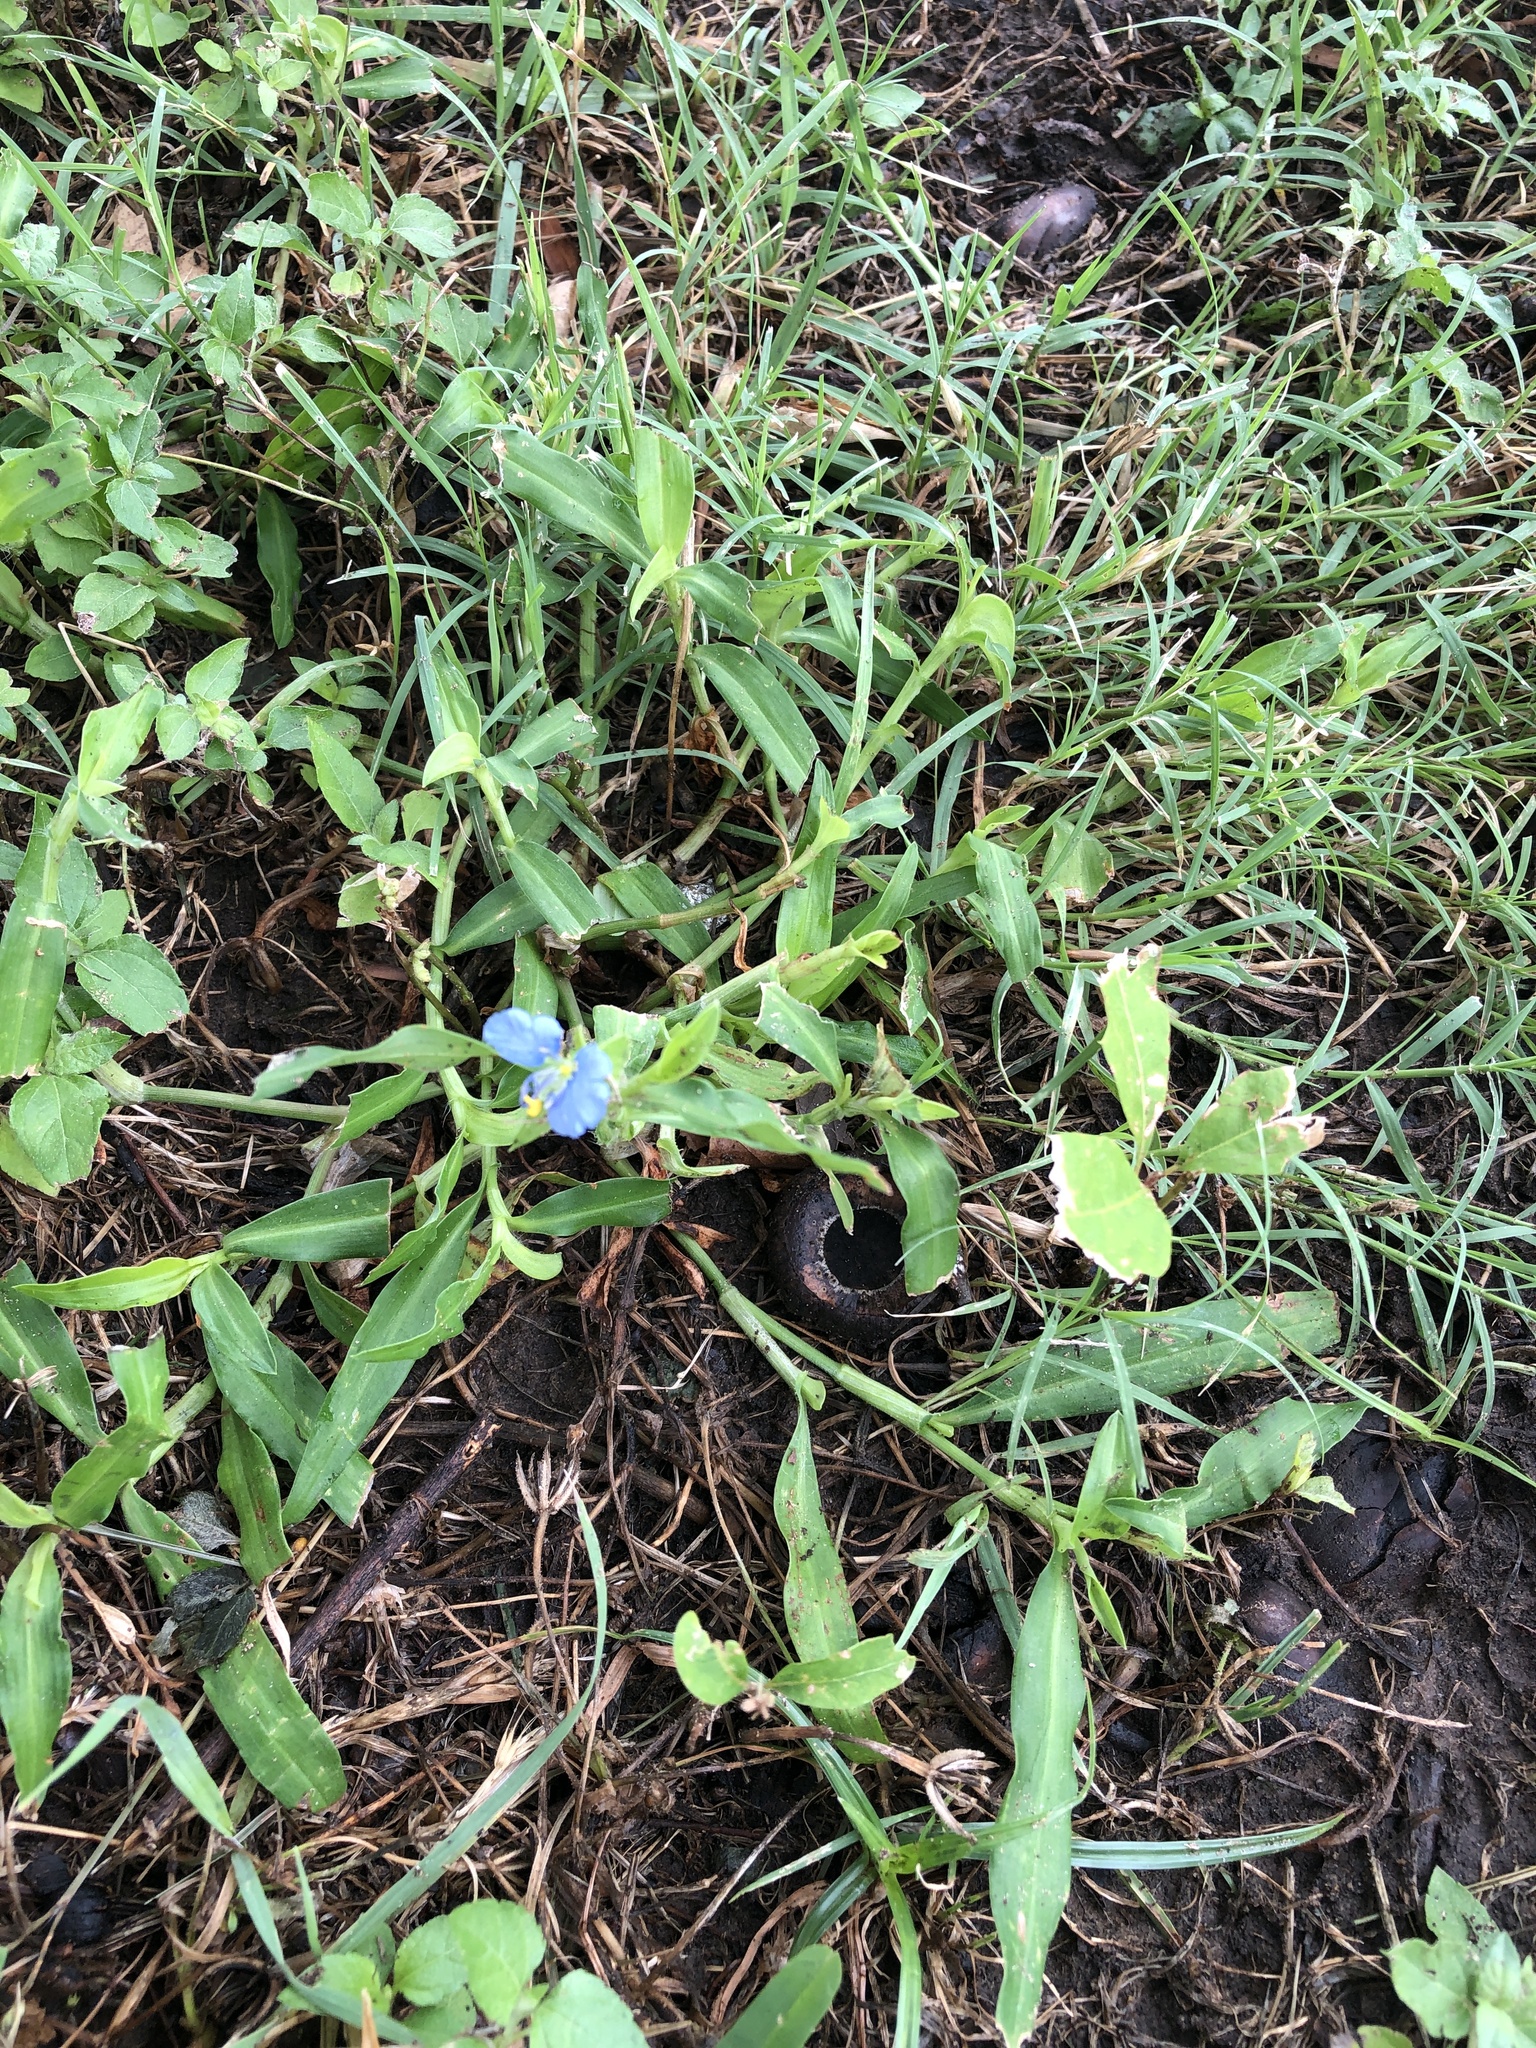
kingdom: Plantae
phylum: Tracheophyta
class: Liliopsida
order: Commelinales
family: Commelinaceae
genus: Commelina
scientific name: Commelina erecta
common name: Blousel blommetjie
